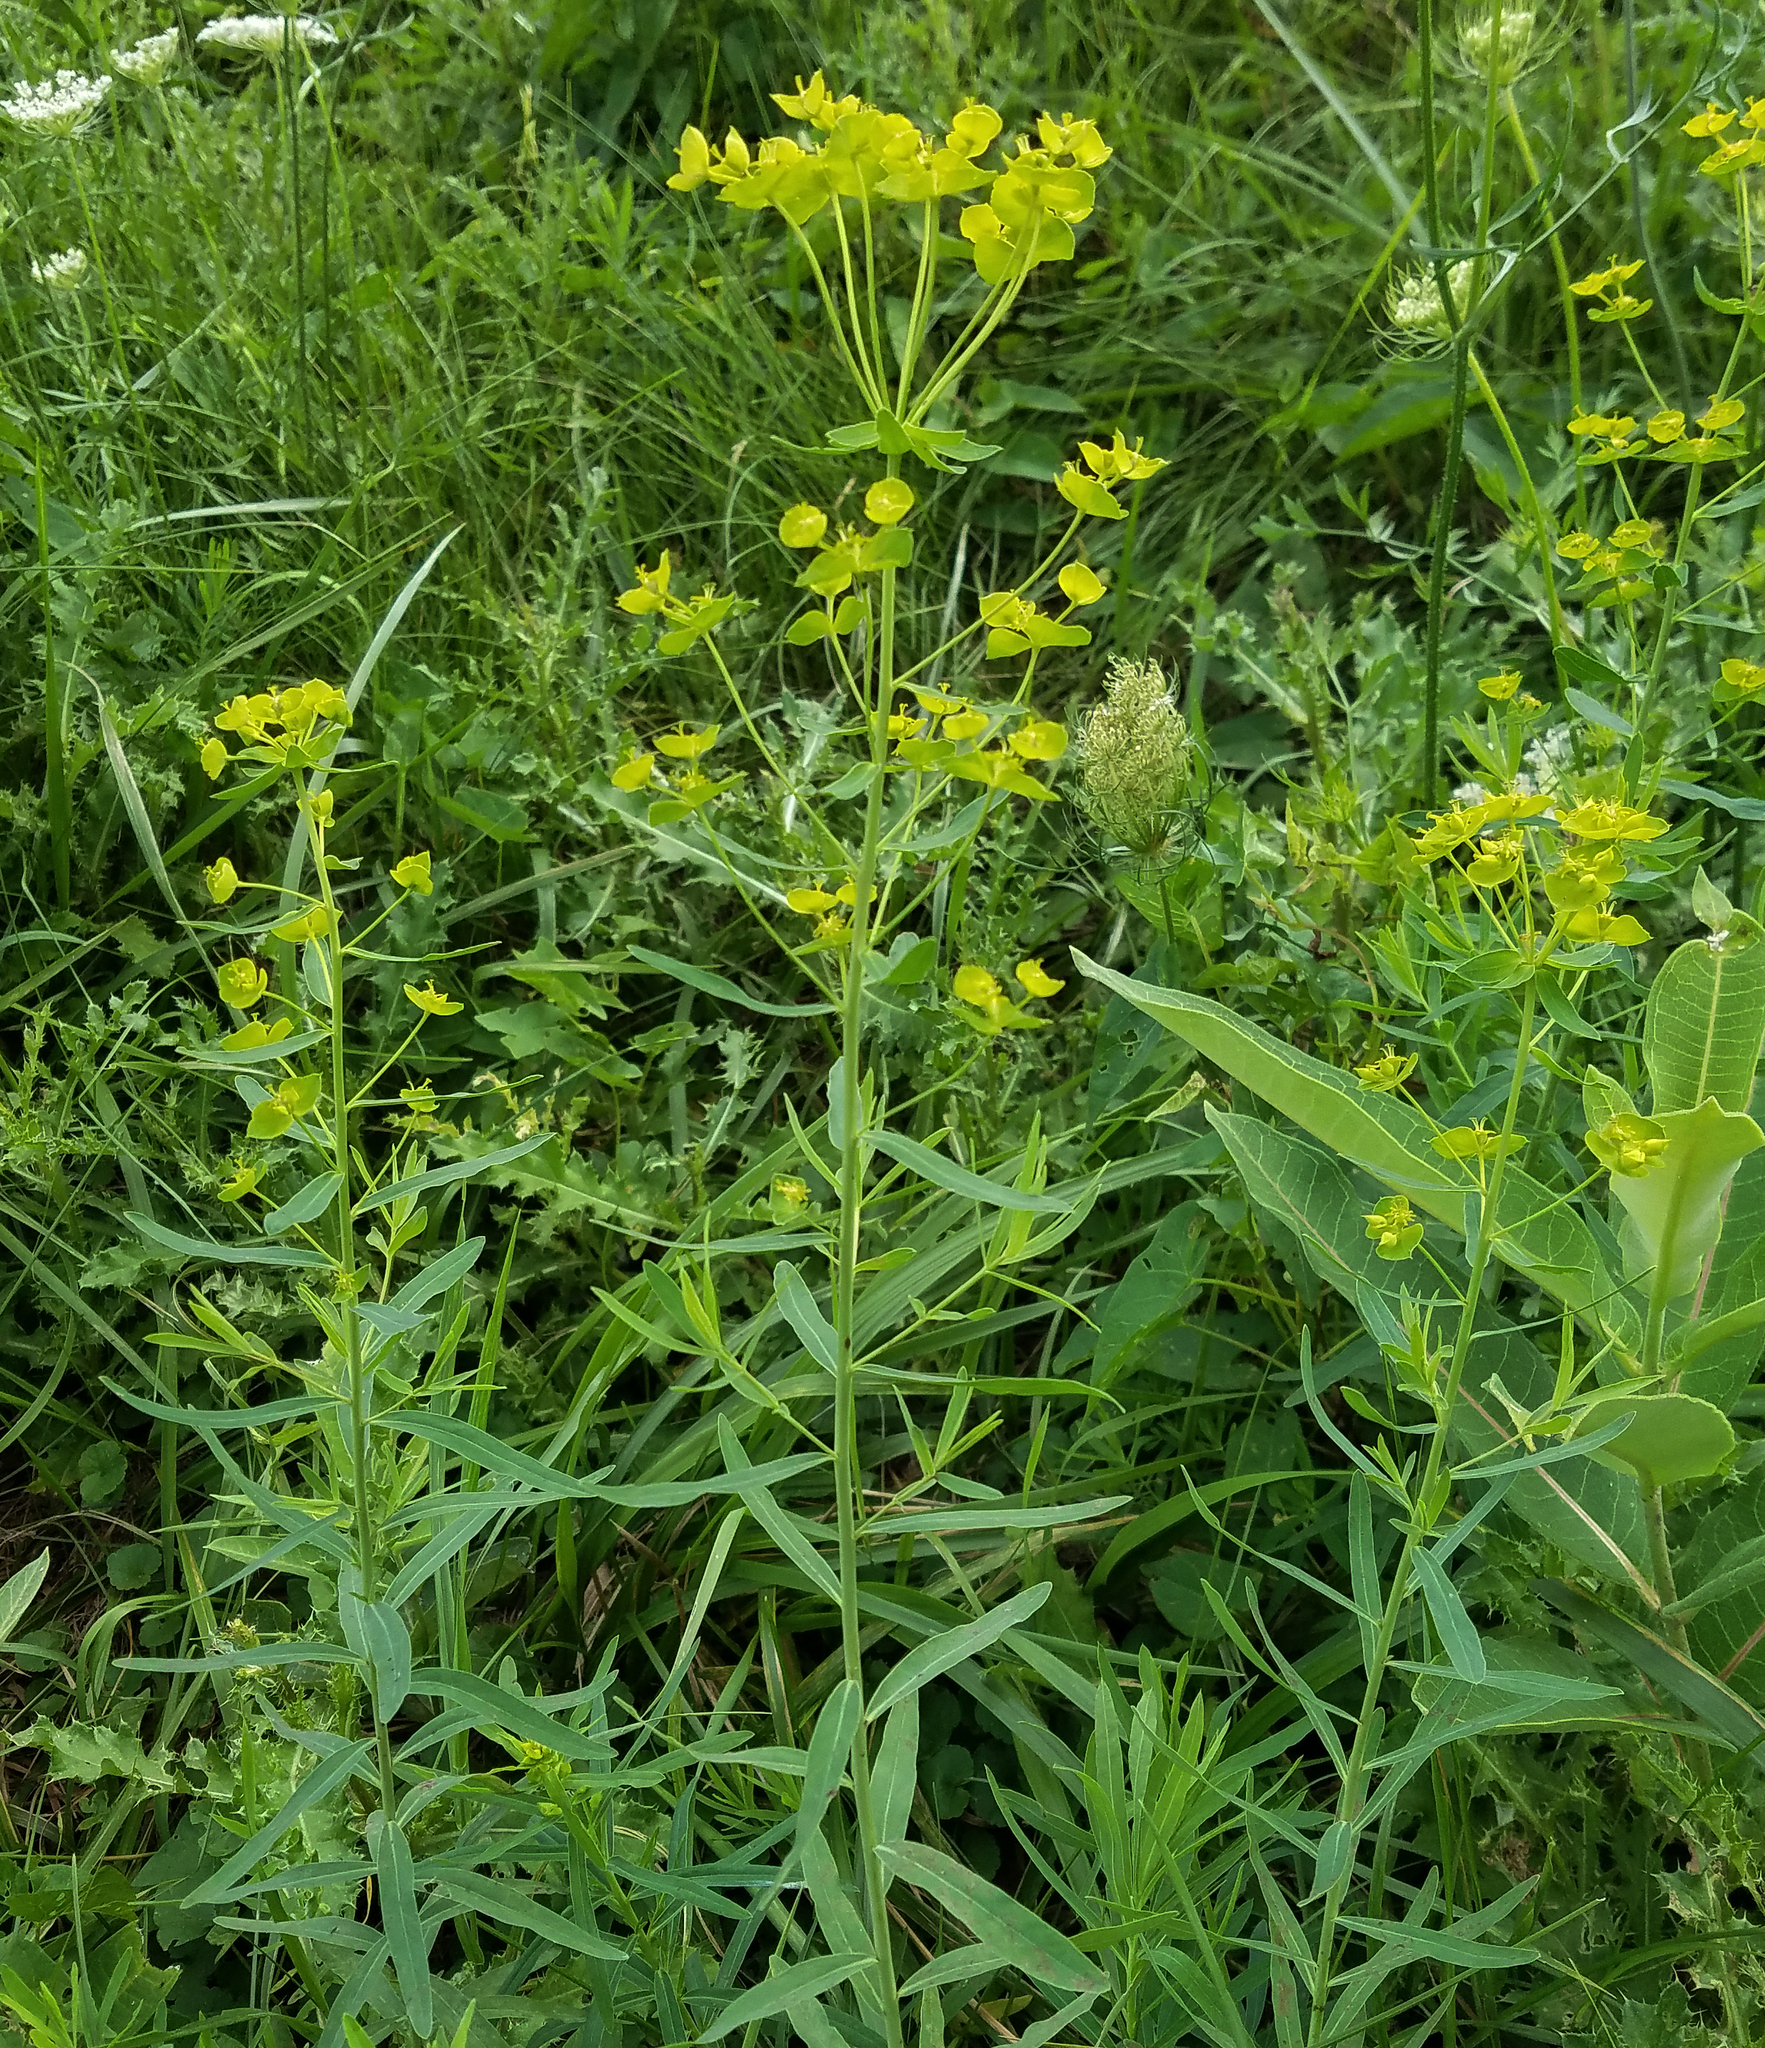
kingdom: Plantae
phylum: Tracheophyta
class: Magnoliopsida
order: Malpighiales
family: Euphorbiaceae
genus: Euphorbia
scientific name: Euphorbia virgata
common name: Leafy spurge
